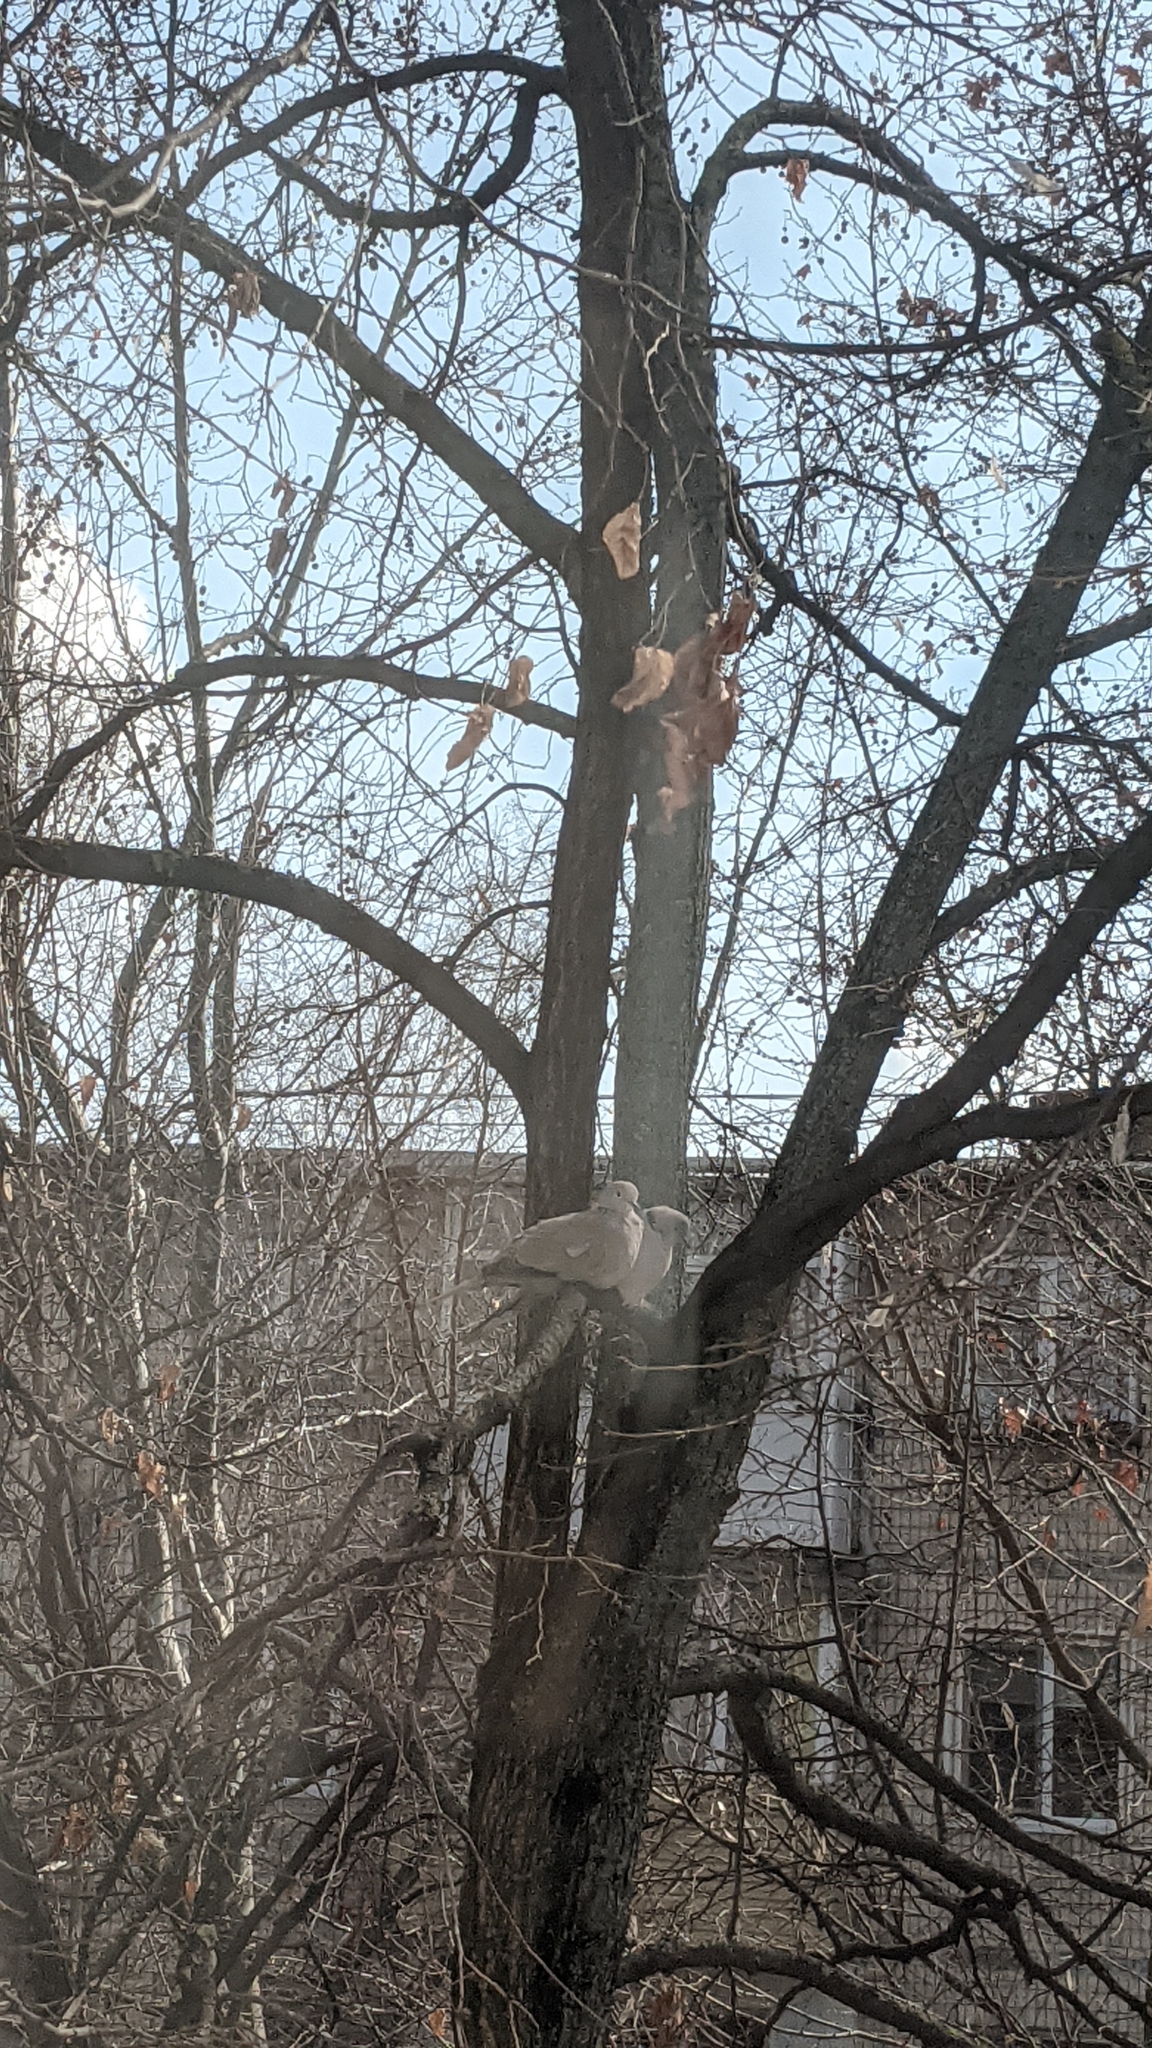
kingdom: Animalia
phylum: Chordata
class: Aves
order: Columbiformes
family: Columbidae
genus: Streptopelia
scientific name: Streptopelia decaocto
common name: Eurasian collared dove
